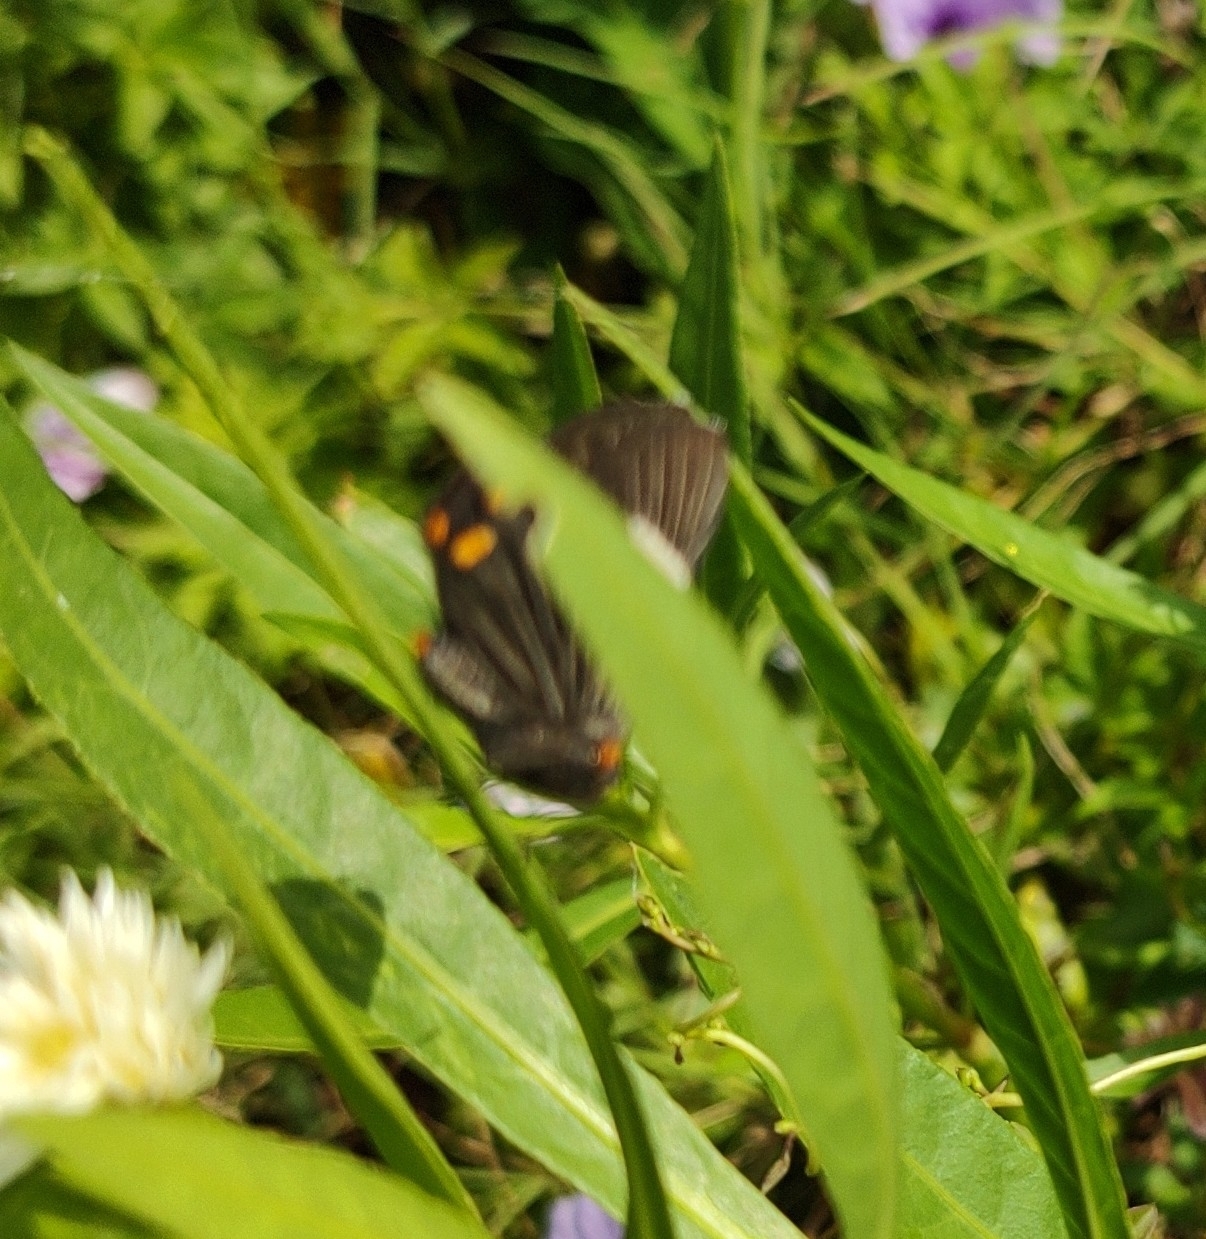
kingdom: Animalia
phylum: Arthropoda
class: Insecta
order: Lepidoptera
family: Riodinidae
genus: Riodina
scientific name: Riodina lycisca
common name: Lycisca metalmark
